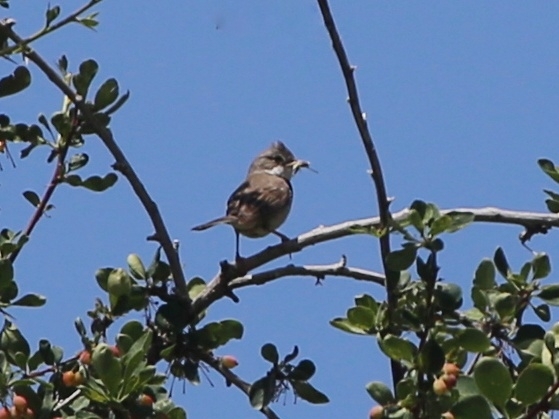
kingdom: Animalia
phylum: Chordata
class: Aves
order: Passeriformes
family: Sylviidae
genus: Sylvia
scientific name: Sylvia communis
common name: Common whitethroat
